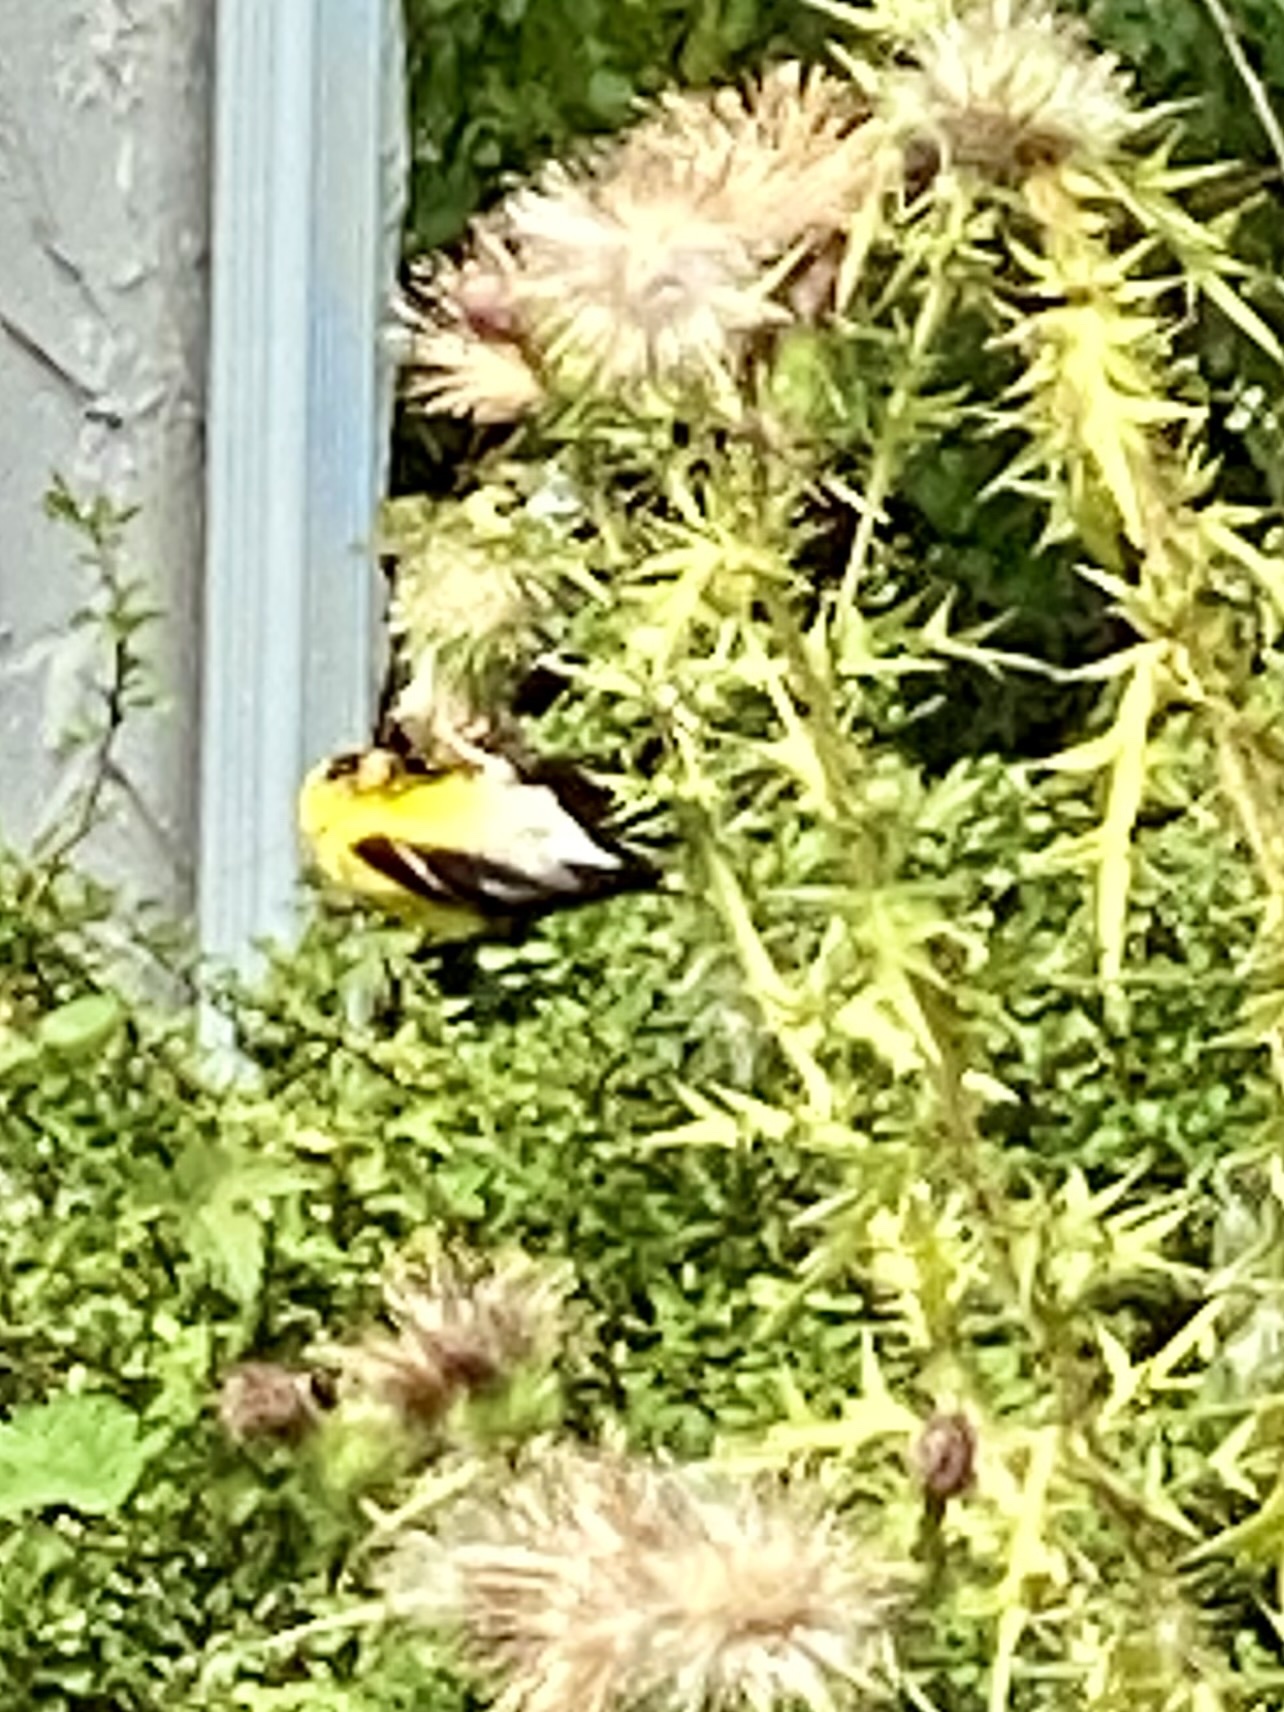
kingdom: Animalia
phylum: Chordata
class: Aves
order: Passeriformes
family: Fringillidae
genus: Spinus
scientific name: Spinus tristis
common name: American goldfinch
